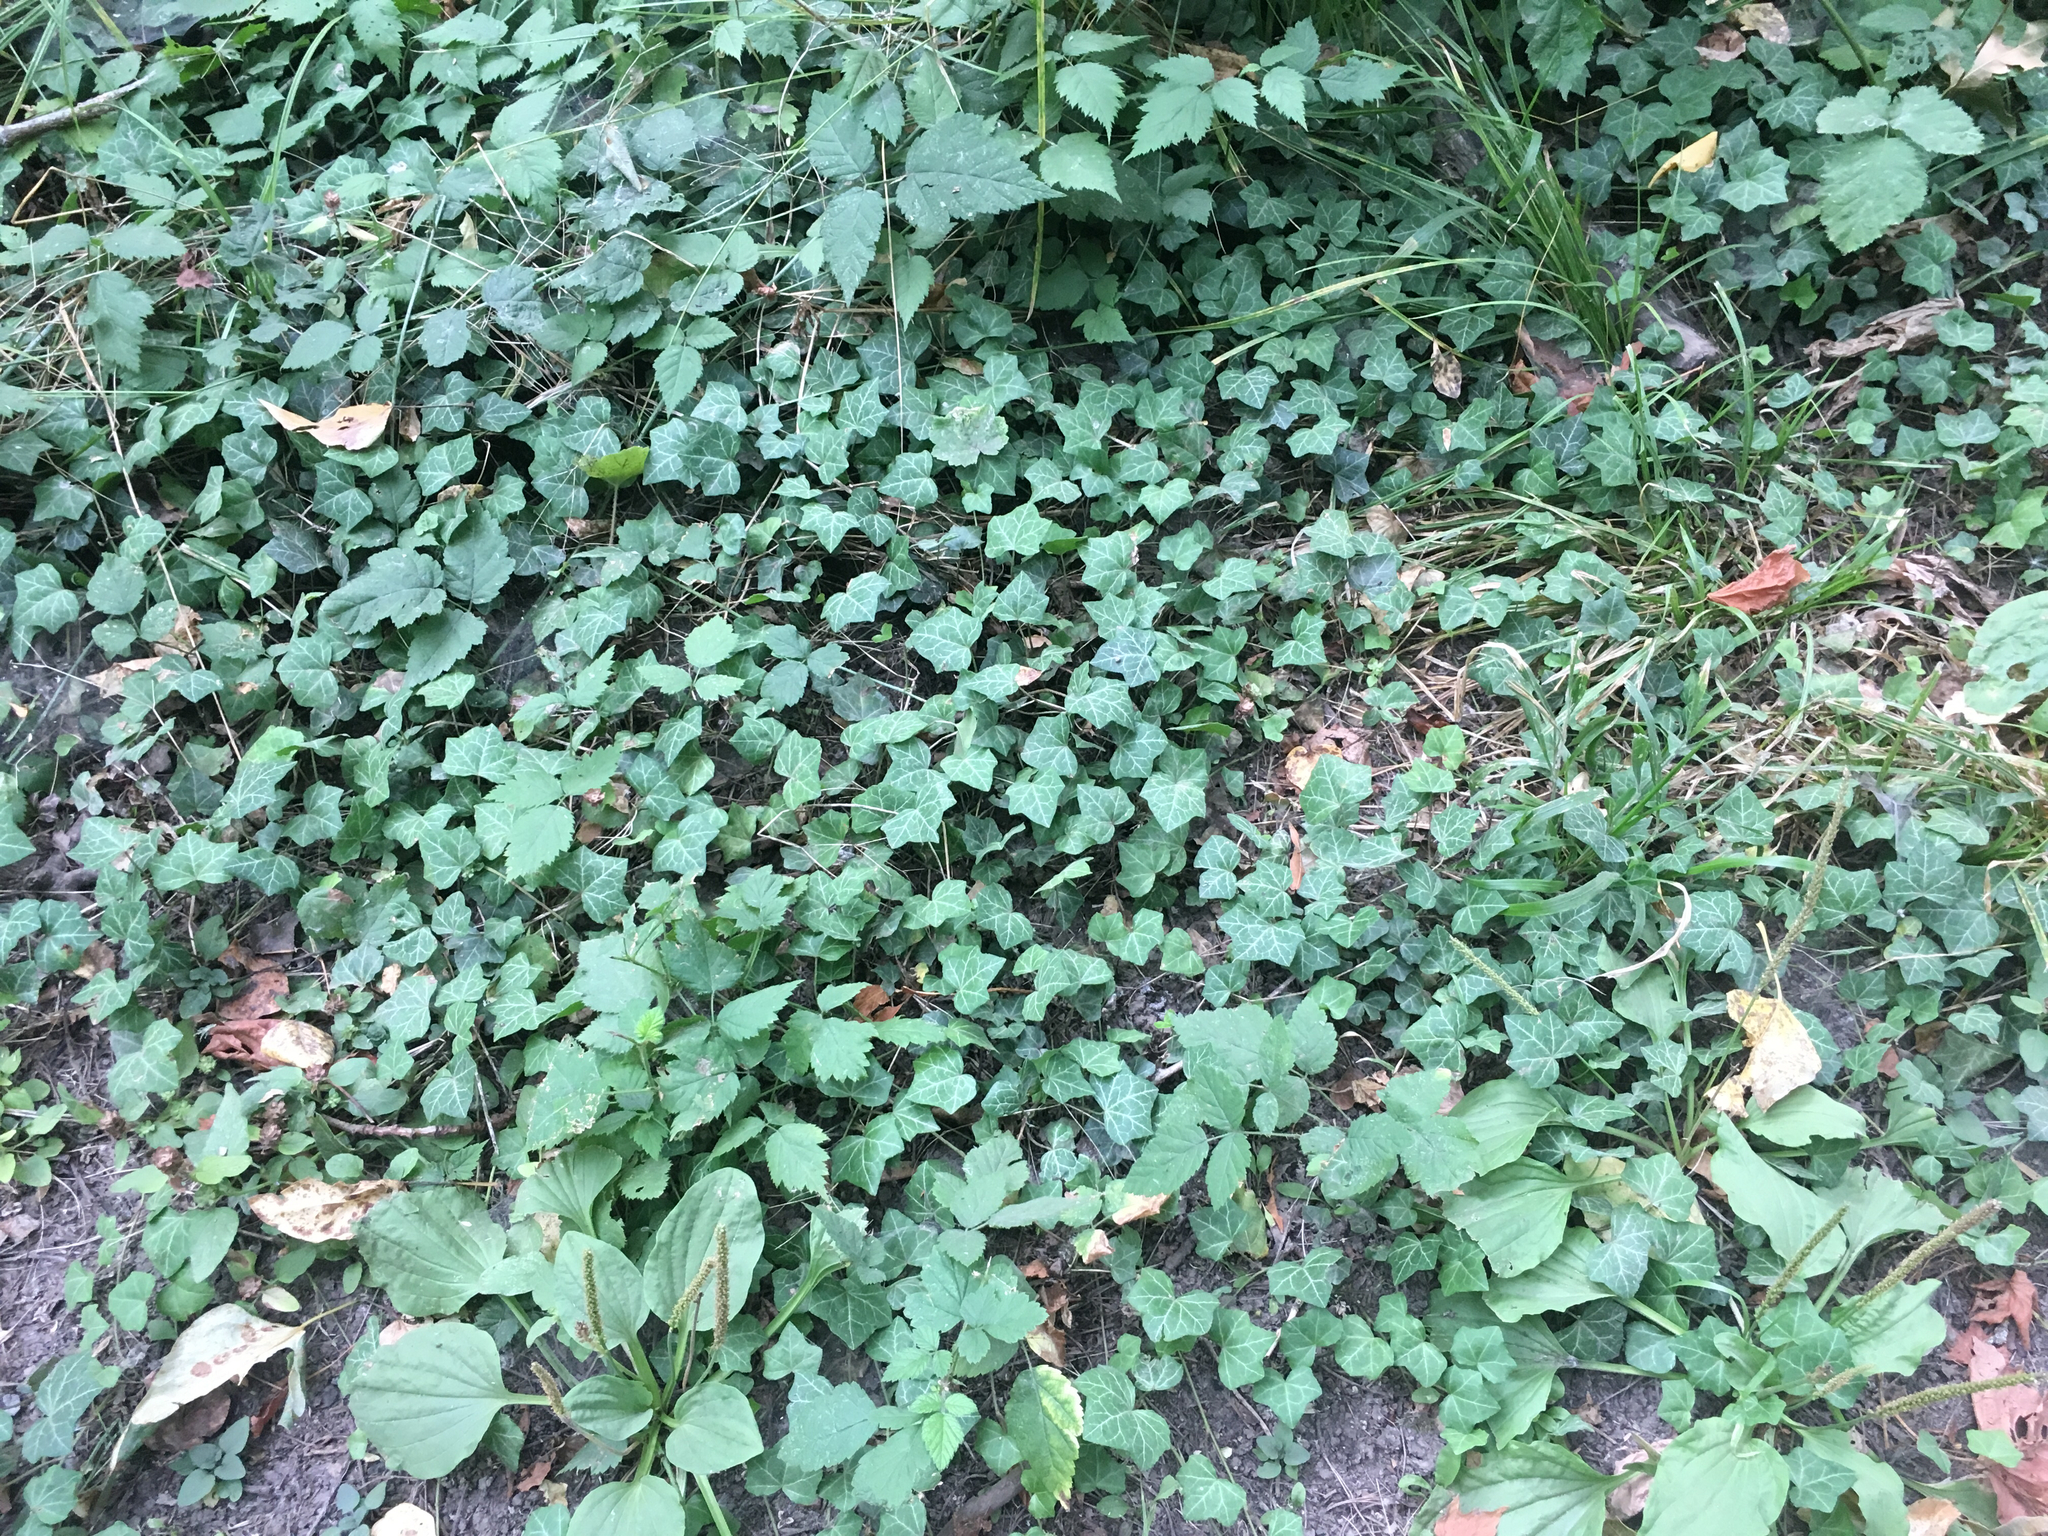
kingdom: Plantae
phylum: Tracheophyta
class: Magnoliopsida
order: Apiales
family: Araliaceae
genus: Hedera
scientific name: Hedera helix
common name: Ivy
